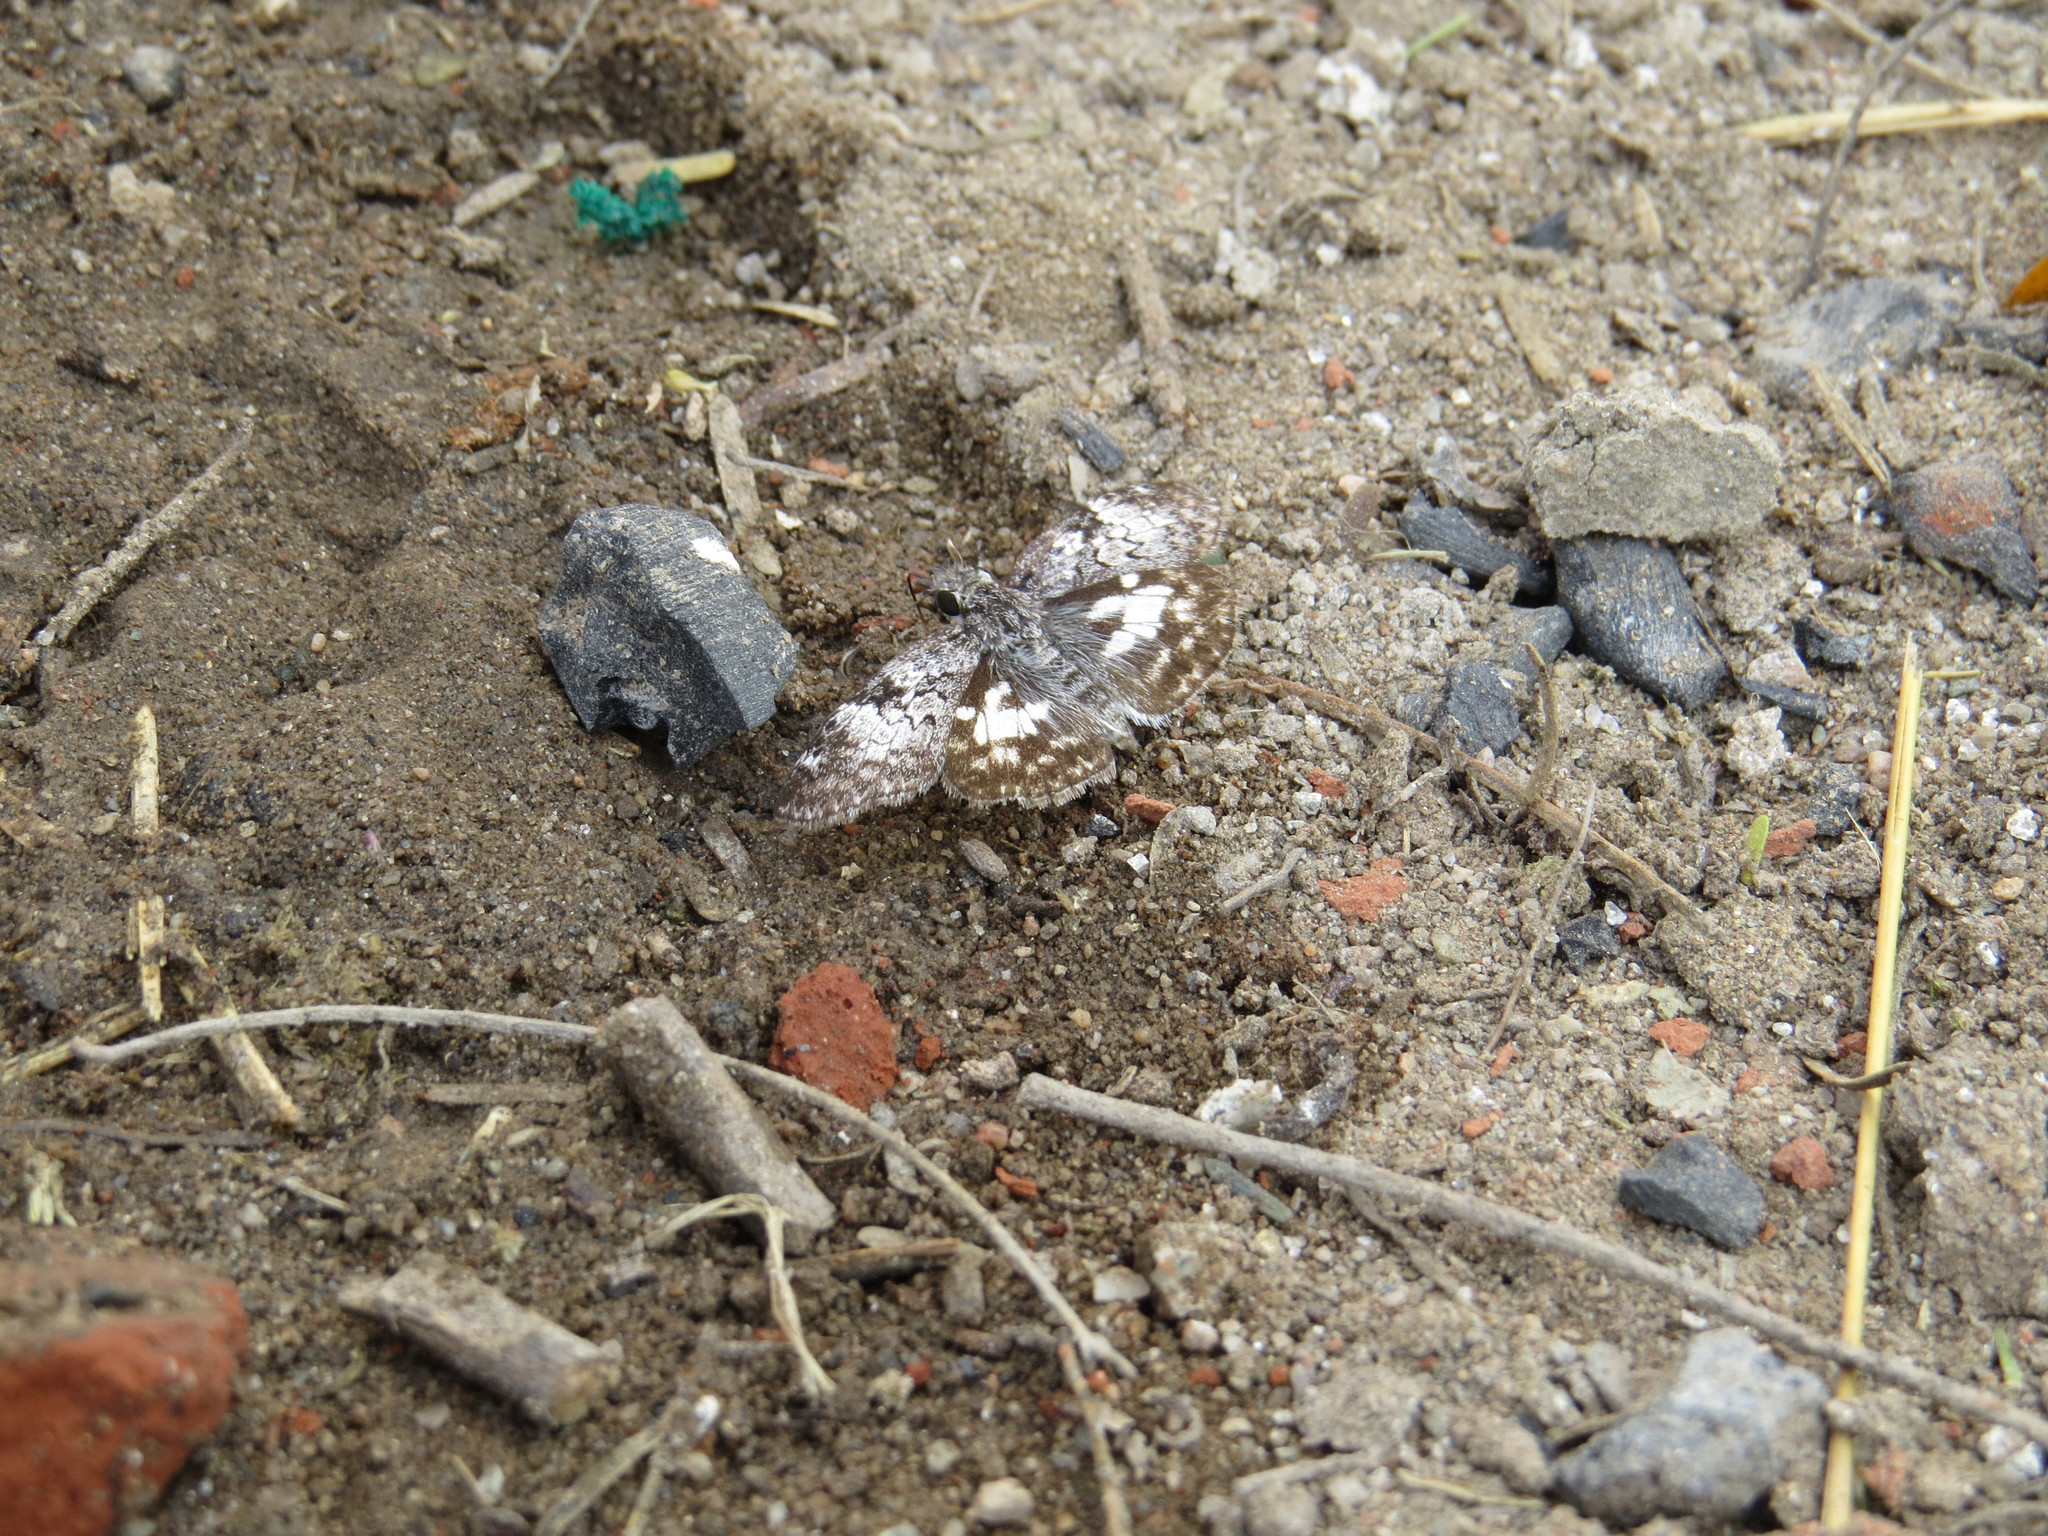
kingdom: Animalia
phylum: Arthropoda
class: Insecta
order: Lepidoptera
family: Hesperiidae
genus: Chiomara
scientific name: Chiomara asychis
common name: White-patterned skipper
